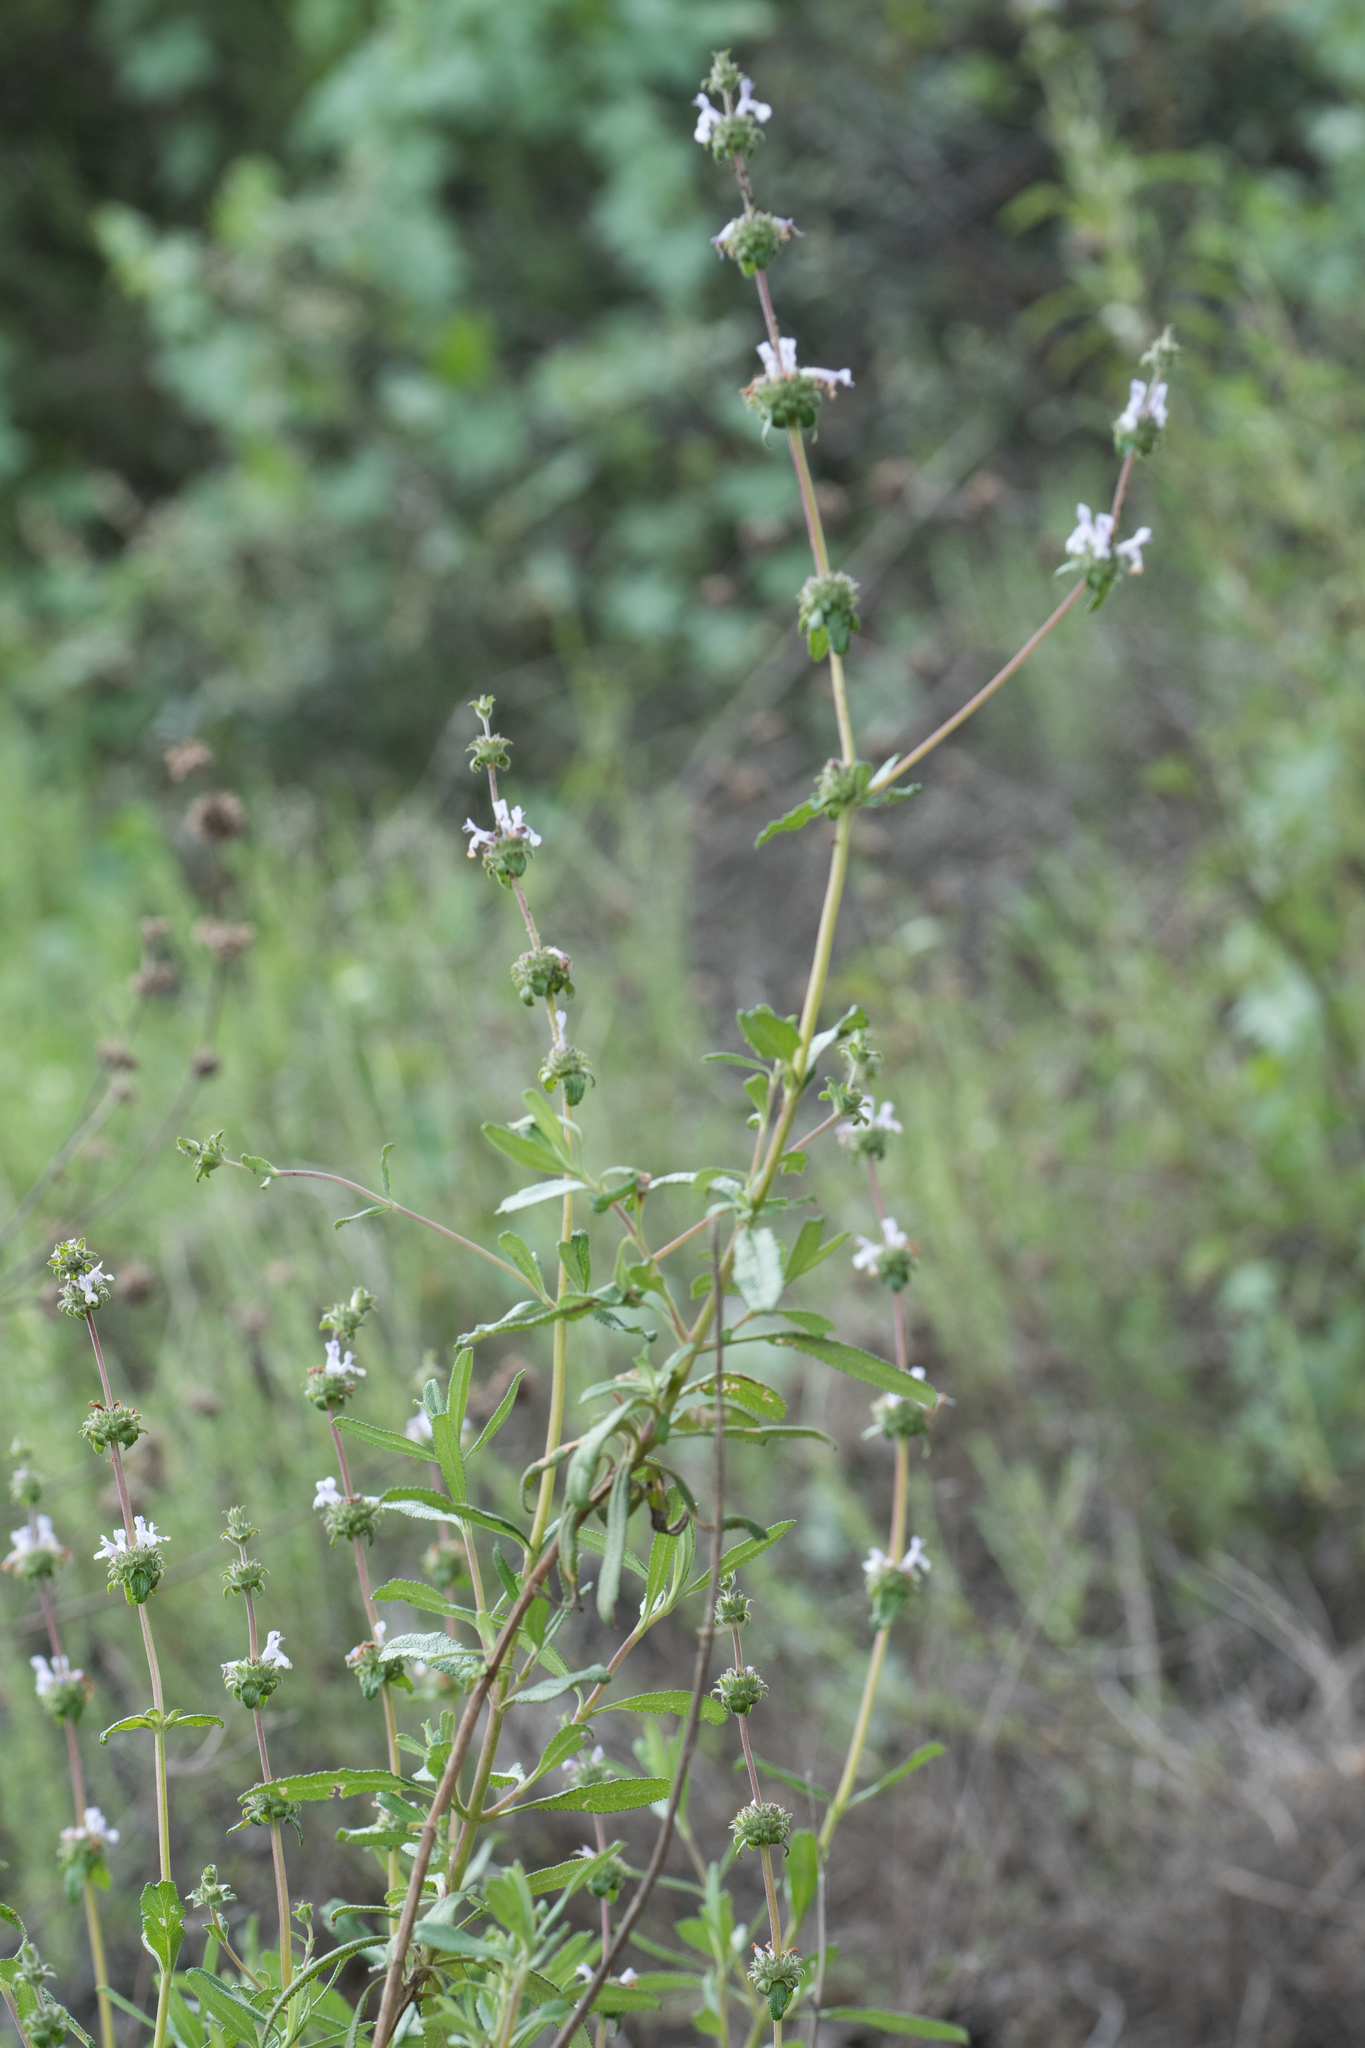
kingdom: Plantae
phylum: Tracheophyta
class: Magnoliopsida
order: Lamiales
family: Lamiaceae
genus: Salvia
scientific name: Salvia mellifera
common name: Black sage
